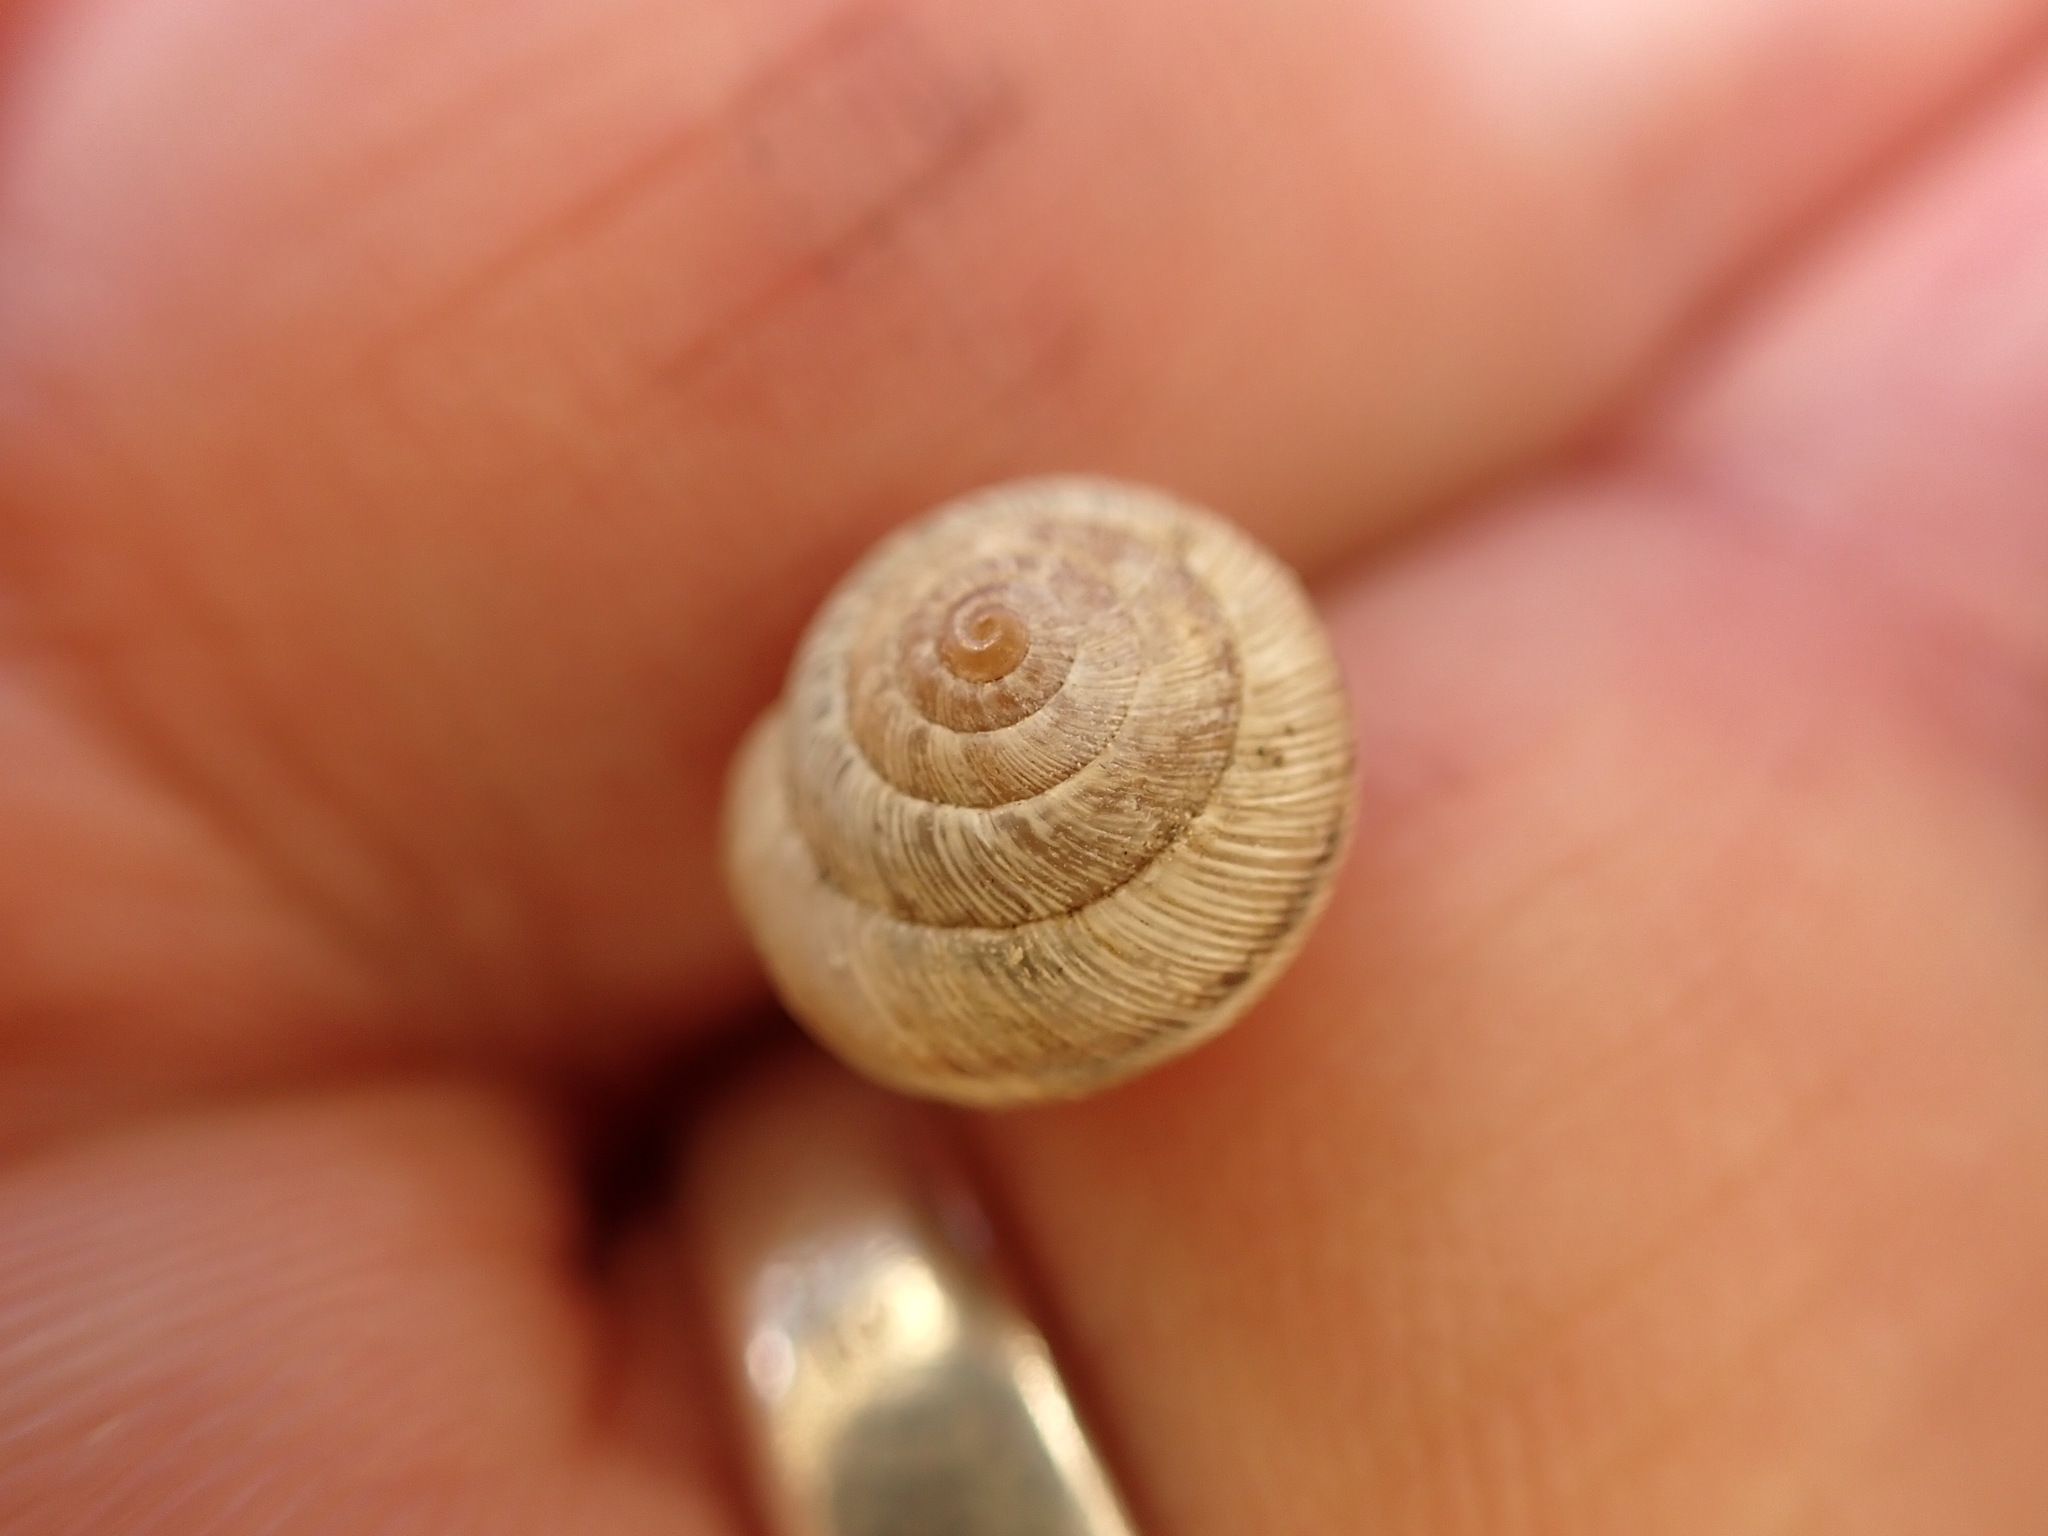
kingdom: Animalia
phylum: Mollusca
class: Gastropoda
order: Stylommatophora
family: Geomitridae
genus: Xeroplexa
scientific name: Xeroplexa intersecta
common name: Wrinkled snail
